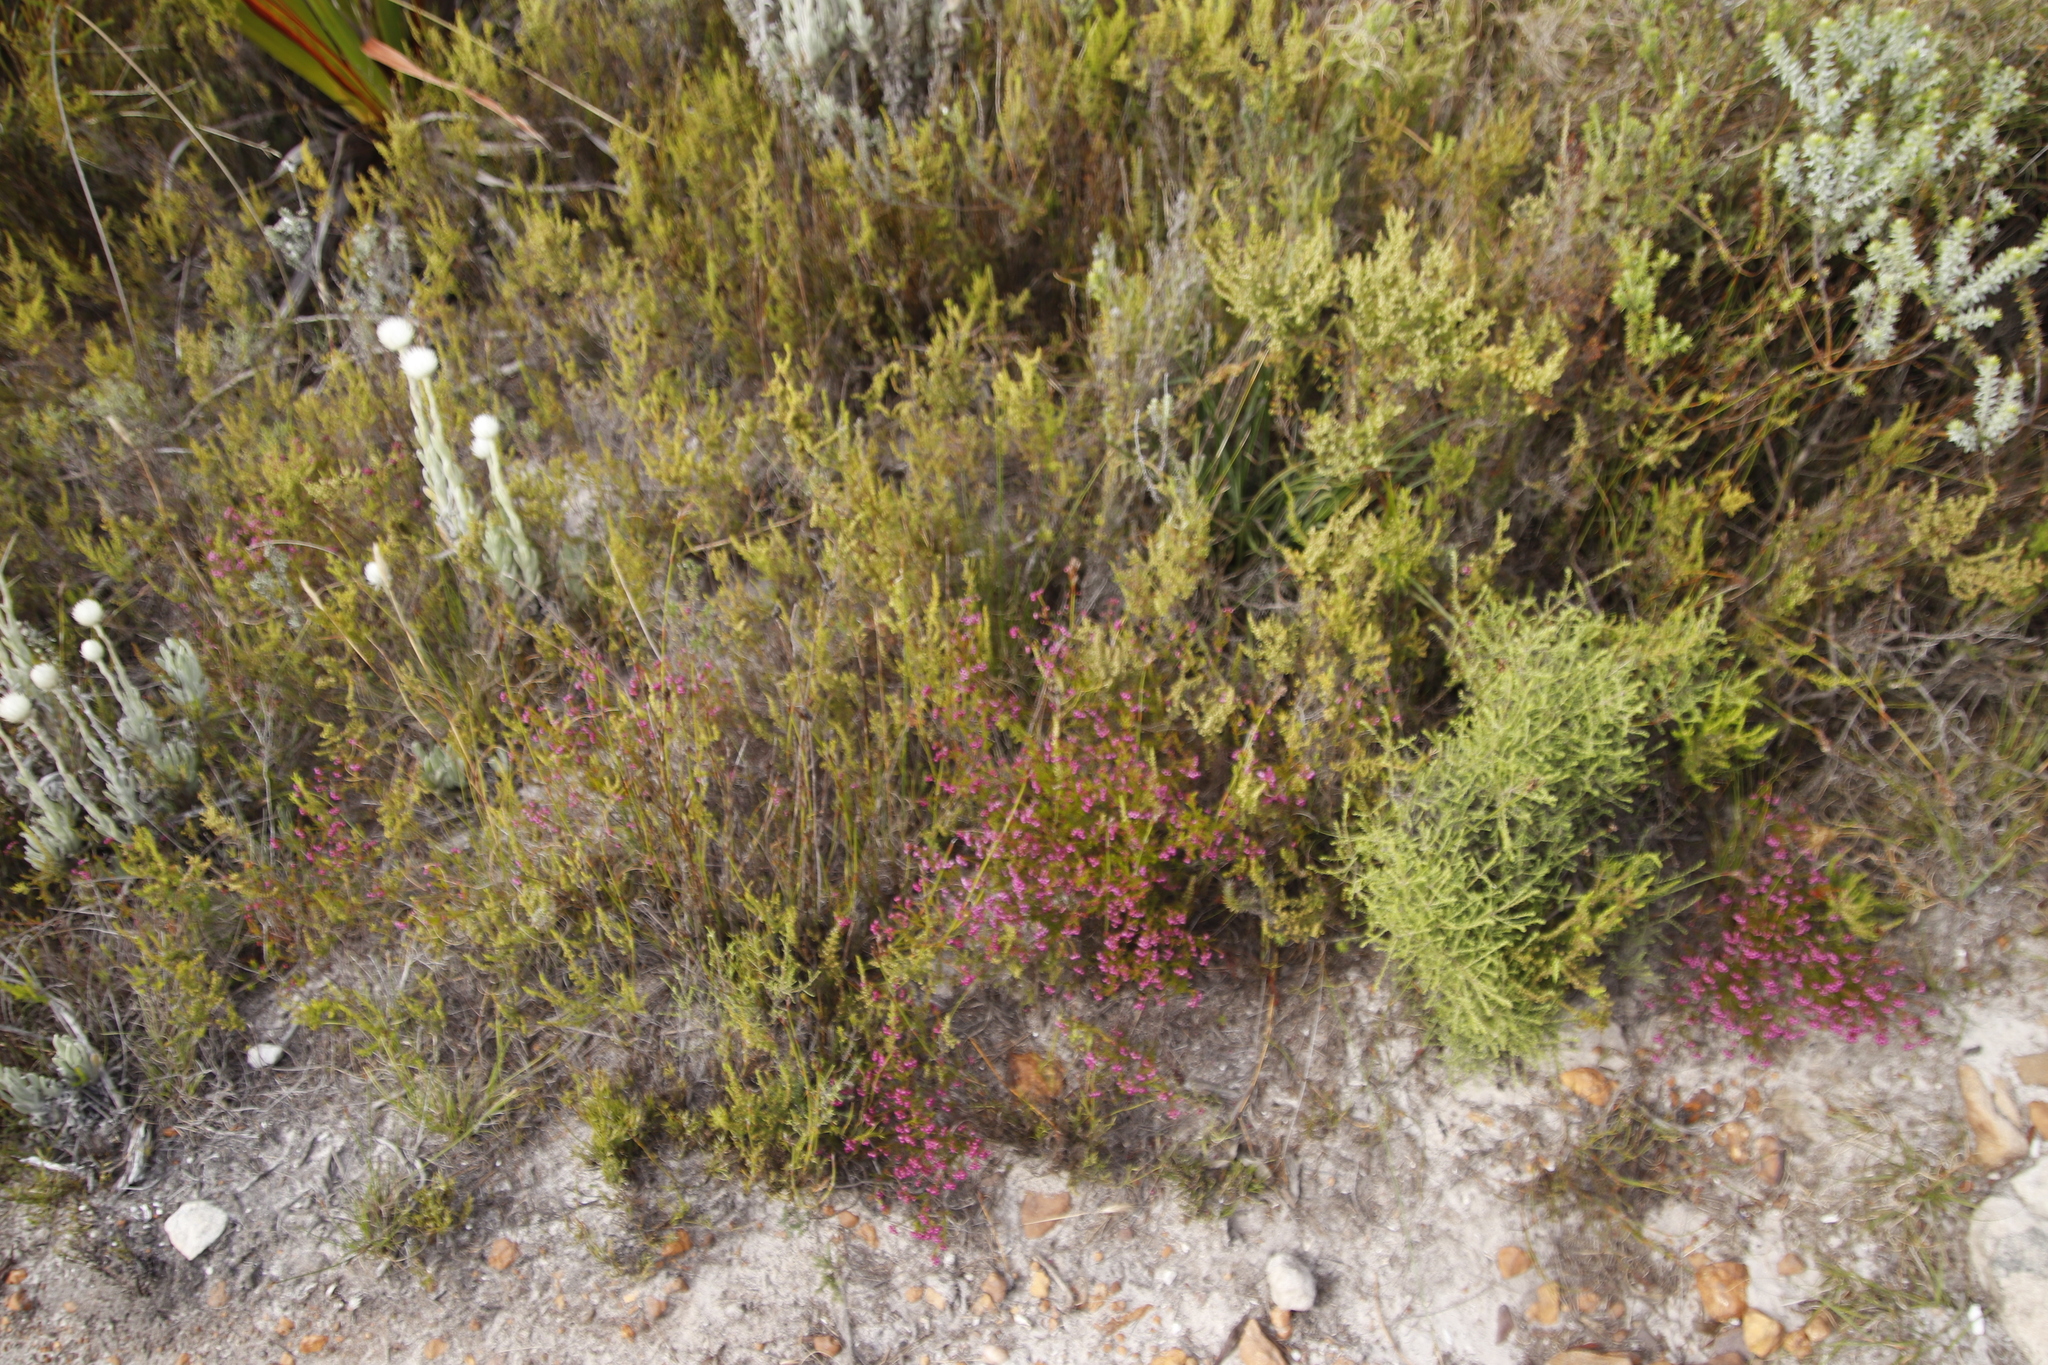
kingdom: Plantae
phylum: Tracheophyta
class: Magnoliopsida
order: Ericales
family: Ericaceae
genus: Erica
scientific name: Erica multumbellifera
